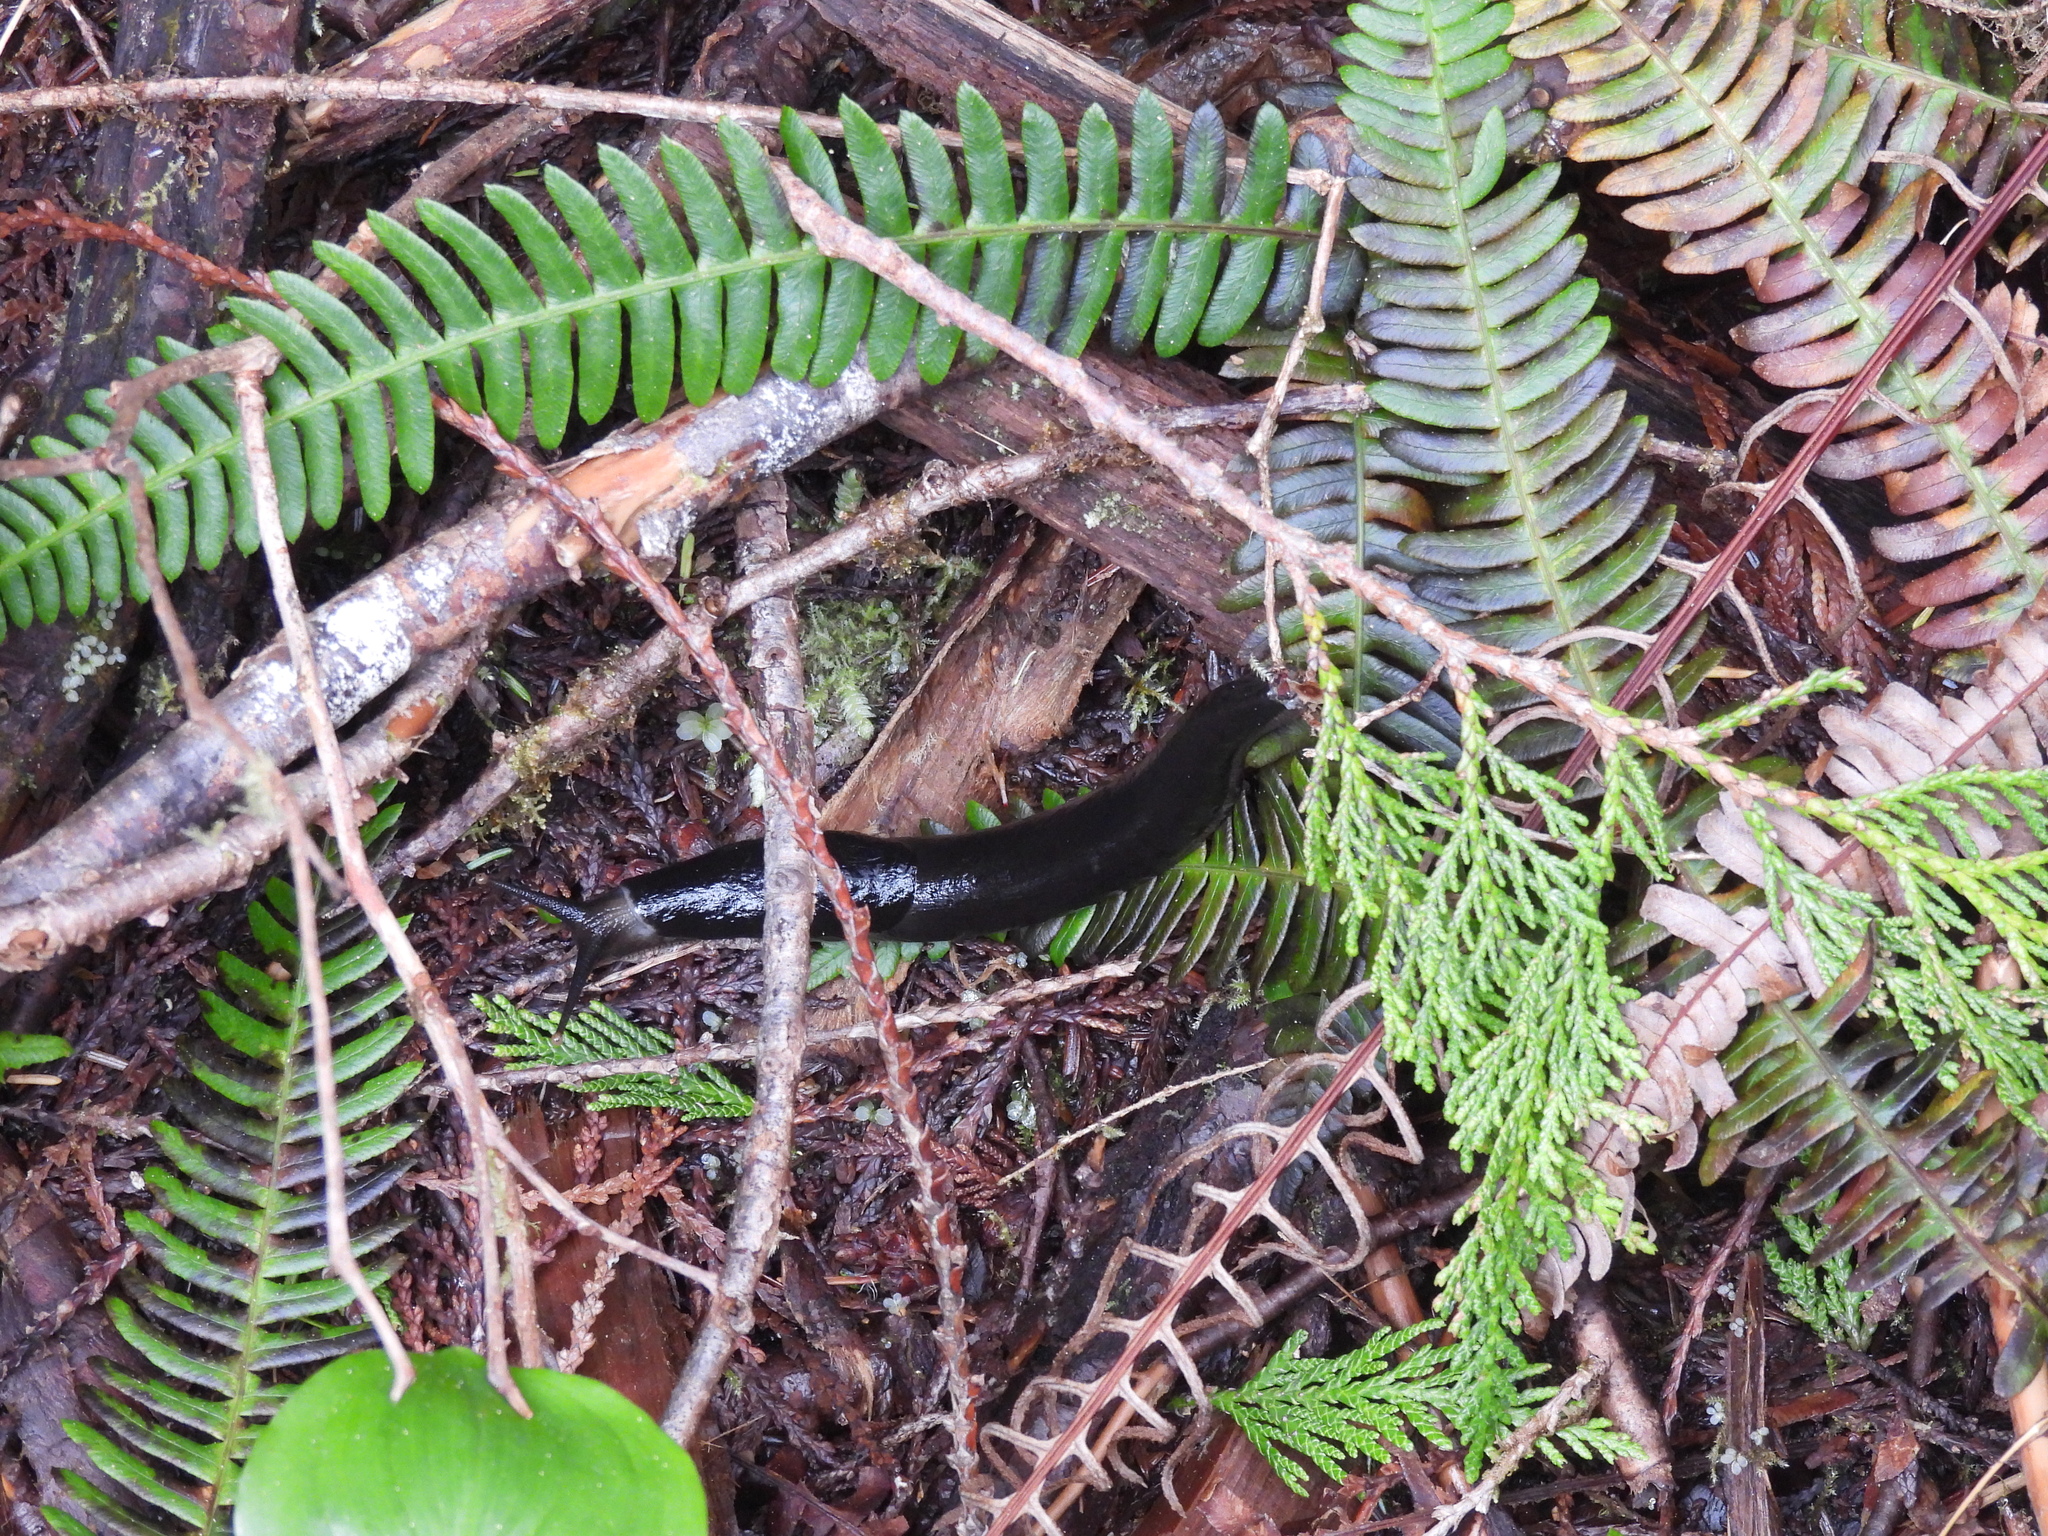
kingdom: Animalia
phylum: Mollusca
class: Gastropoda
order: Stylommatophora
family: Ariolimacidae
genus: Ariolimax
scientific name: Ariolimax columbianus
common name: Pacific banana slug
